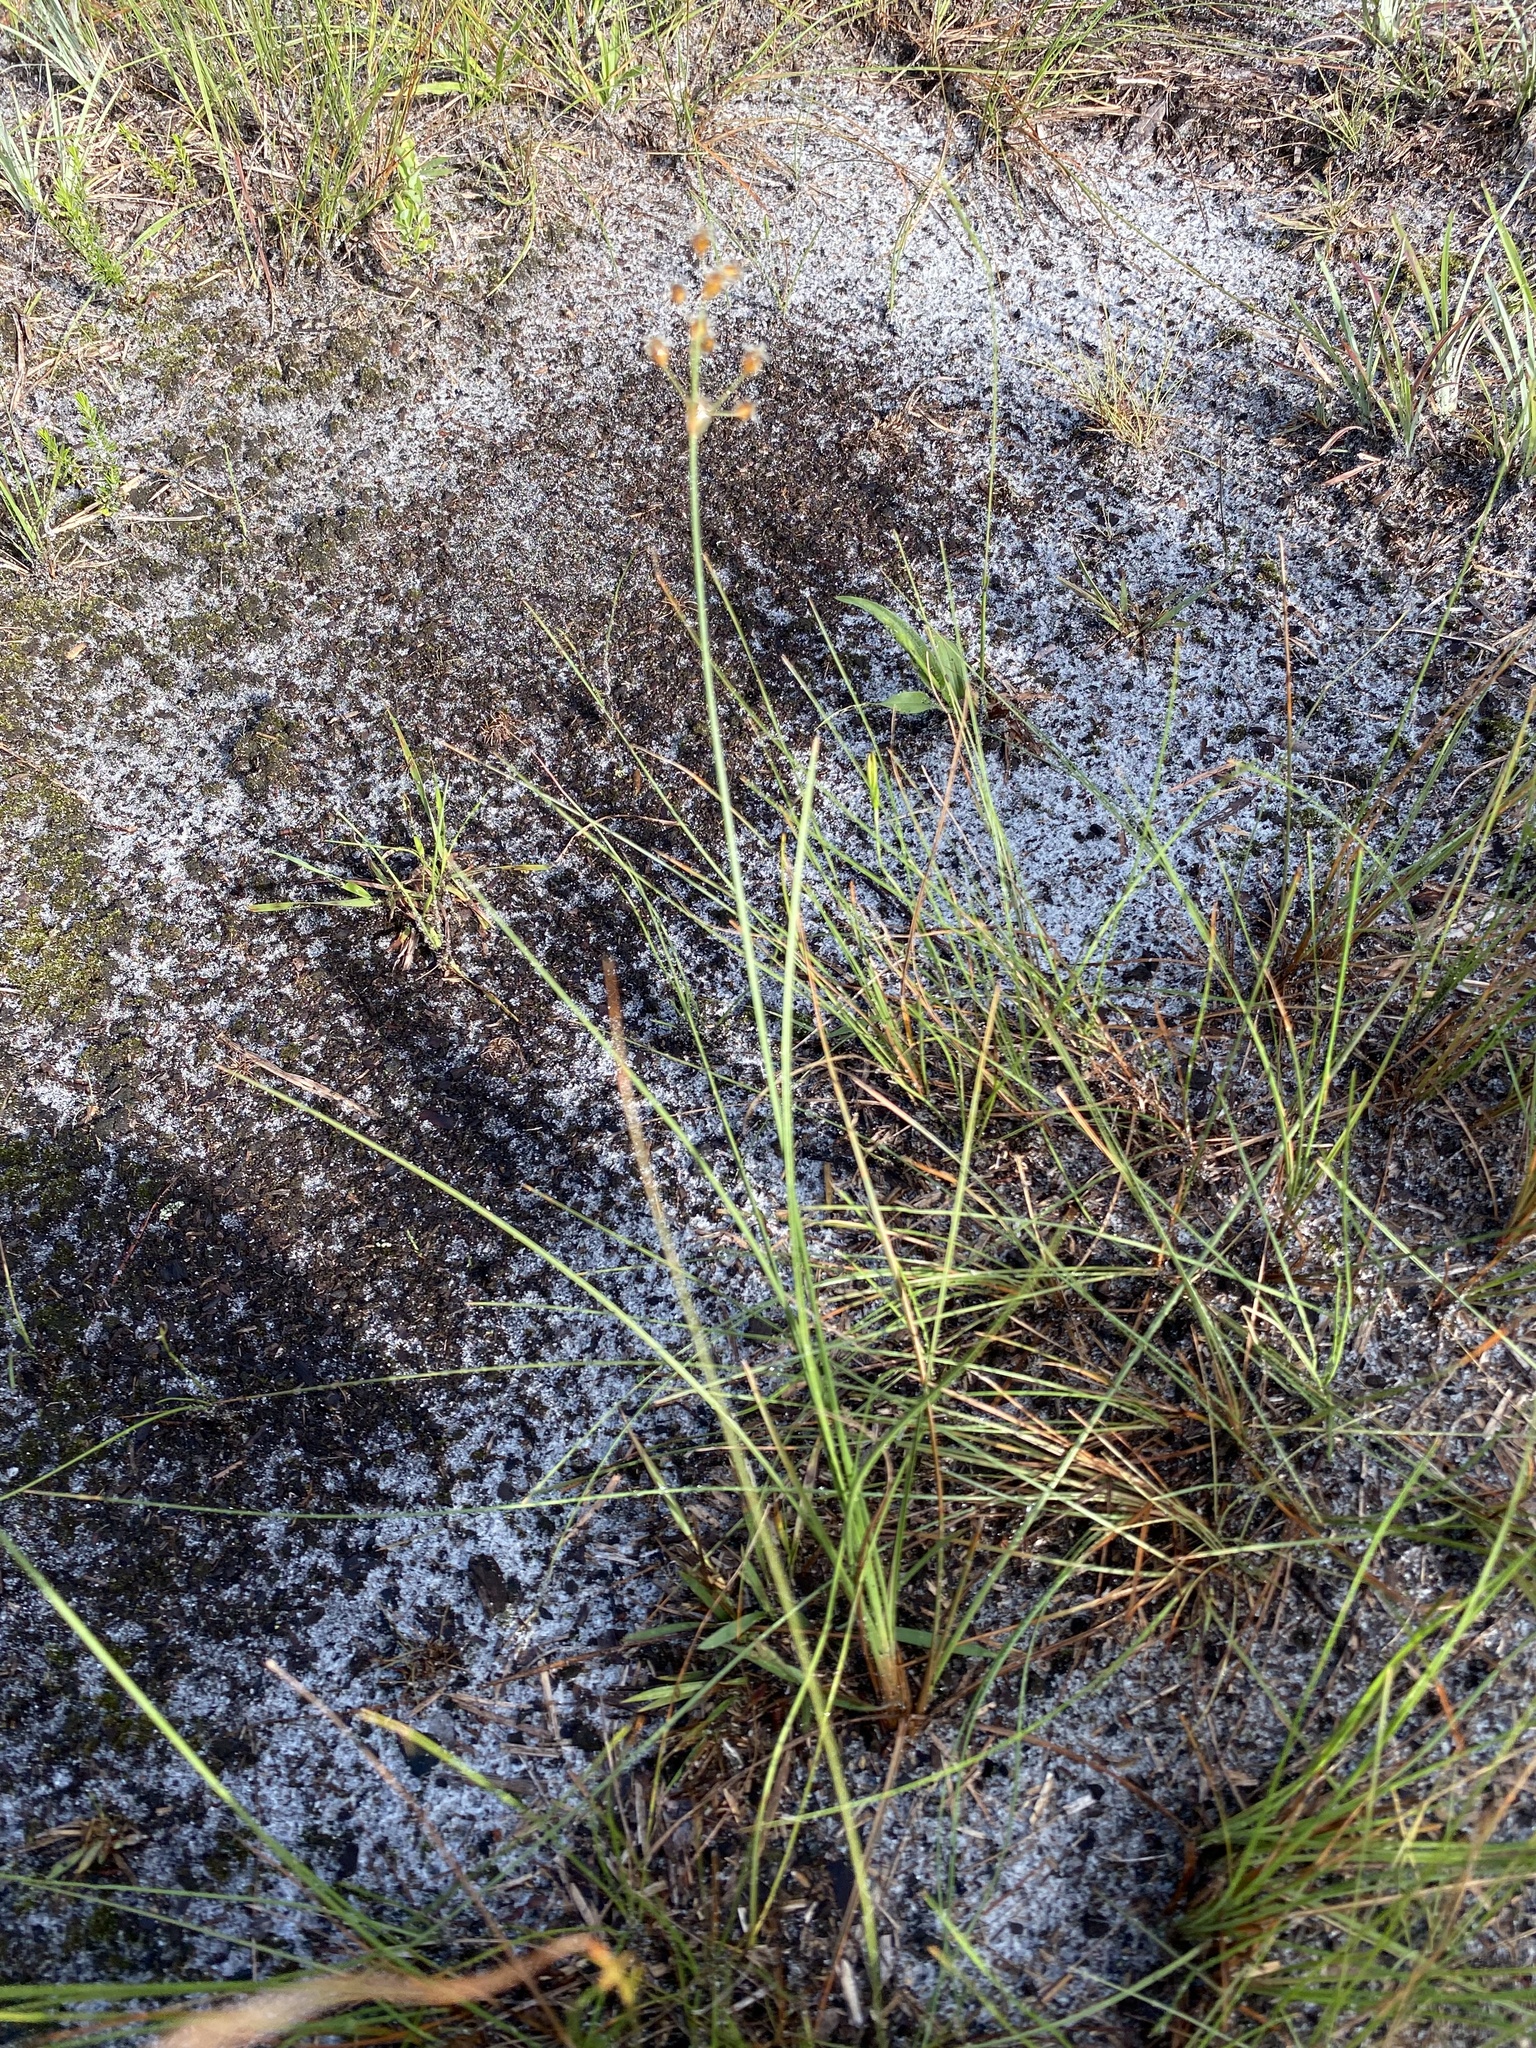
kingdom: Plantae
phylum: Tracheophyta
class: Liliopsida
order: Poales
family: Cyperaceae
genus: Fimbristylis
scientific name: Fimbristylis puberula
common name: Hairy fimbristylis
